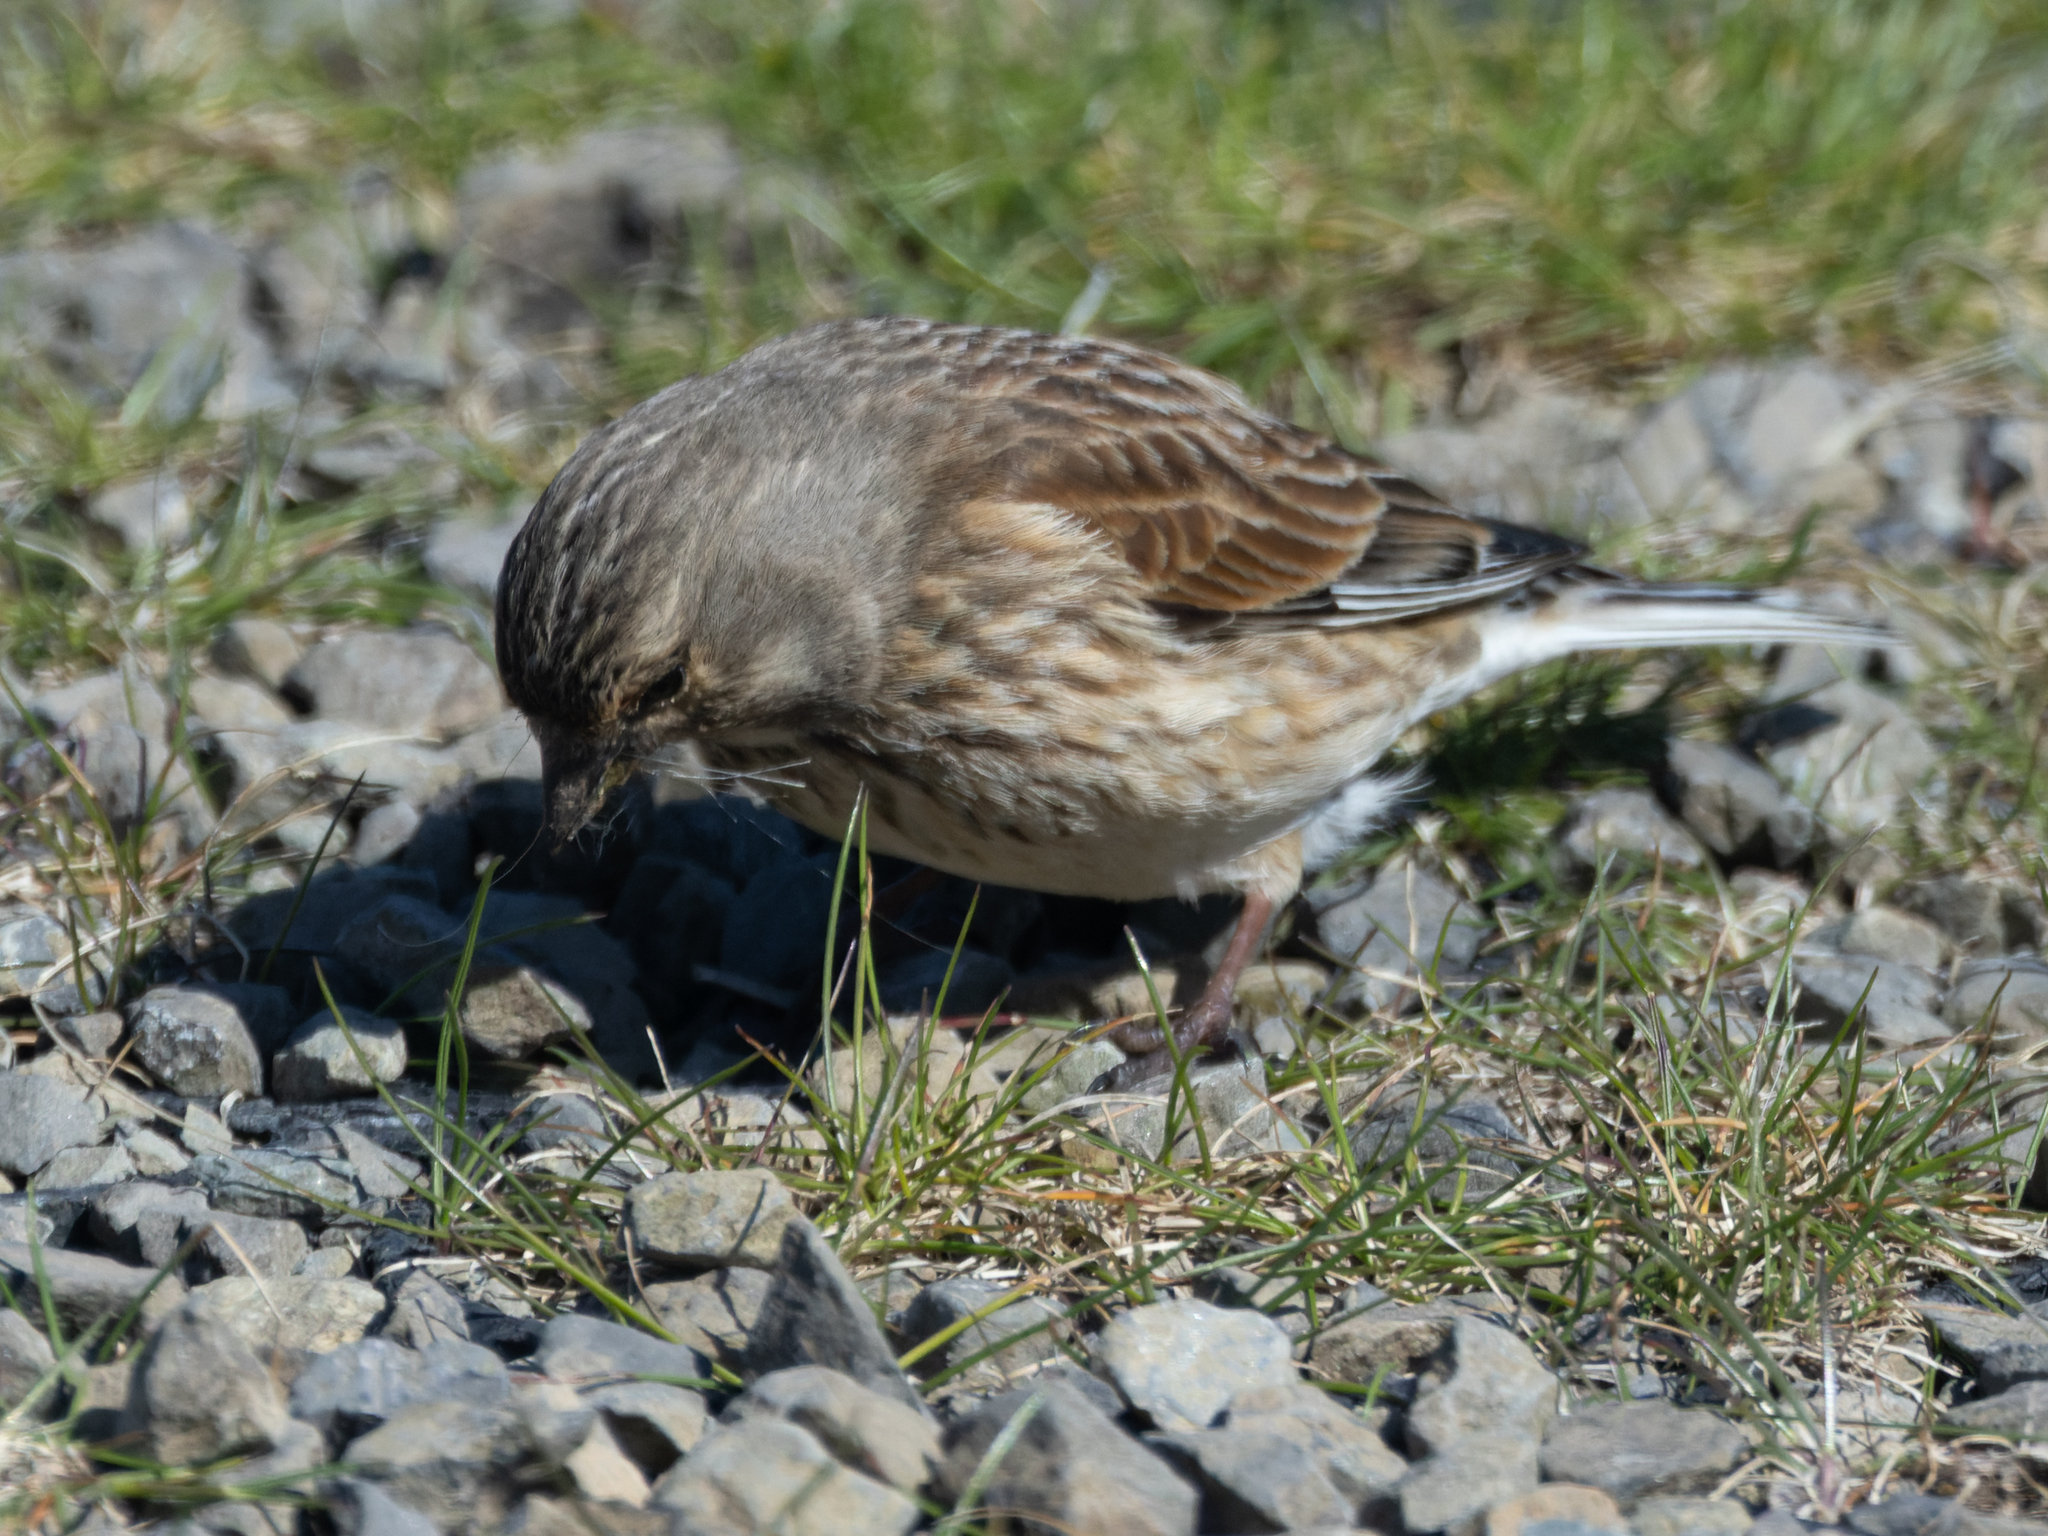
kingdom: Animalia
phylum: Chordata
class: Aves
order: Passeriformes
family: Fringillidae
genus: Linaria
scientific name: Linaria cannabina
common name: Common linnet
